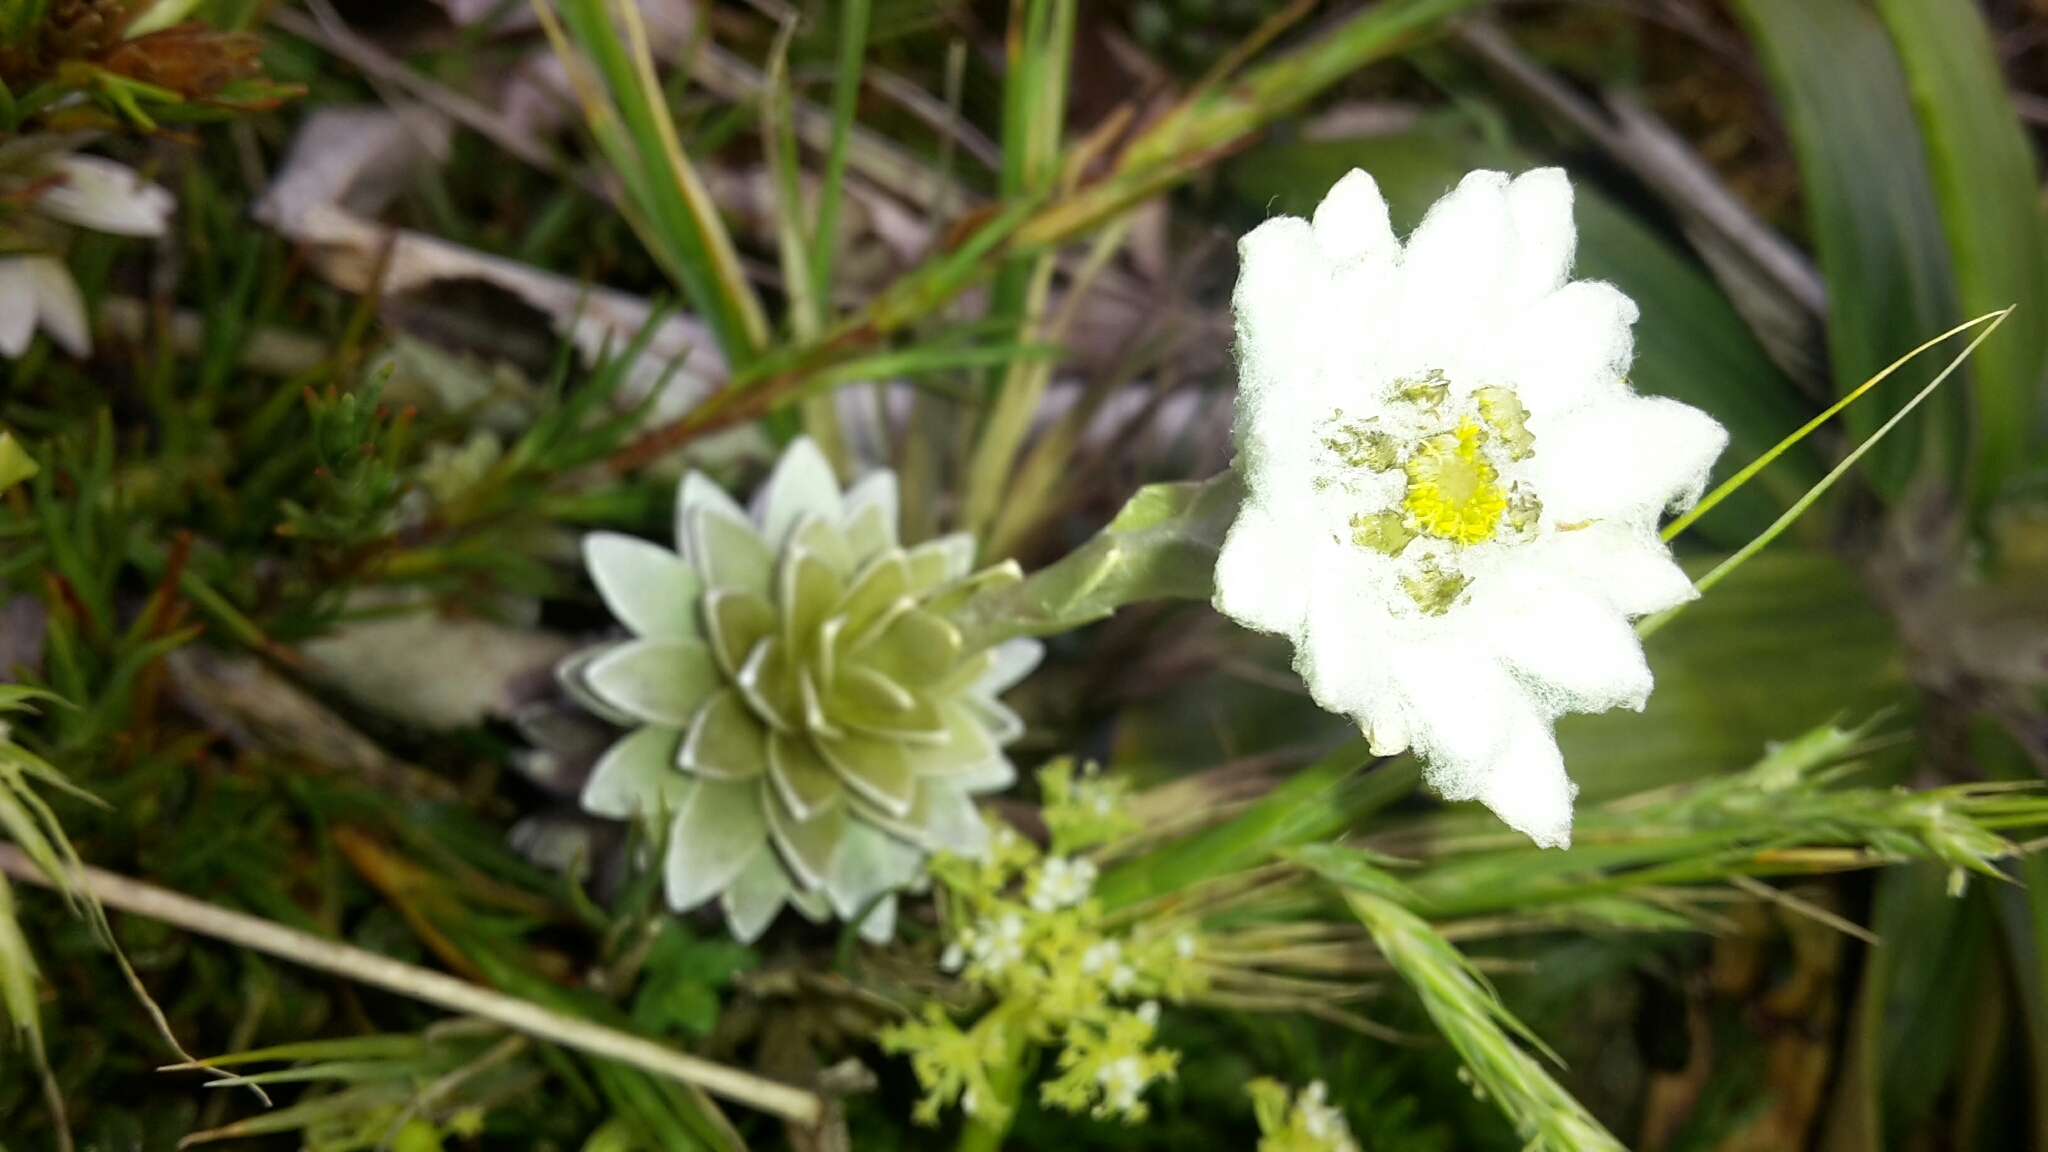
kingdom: Plantae
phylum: Tracheophyta
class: Magnoliopsida
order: Asterales
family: Asteraceae
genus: Leucogenes
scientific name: Leucogenes leontopodium
